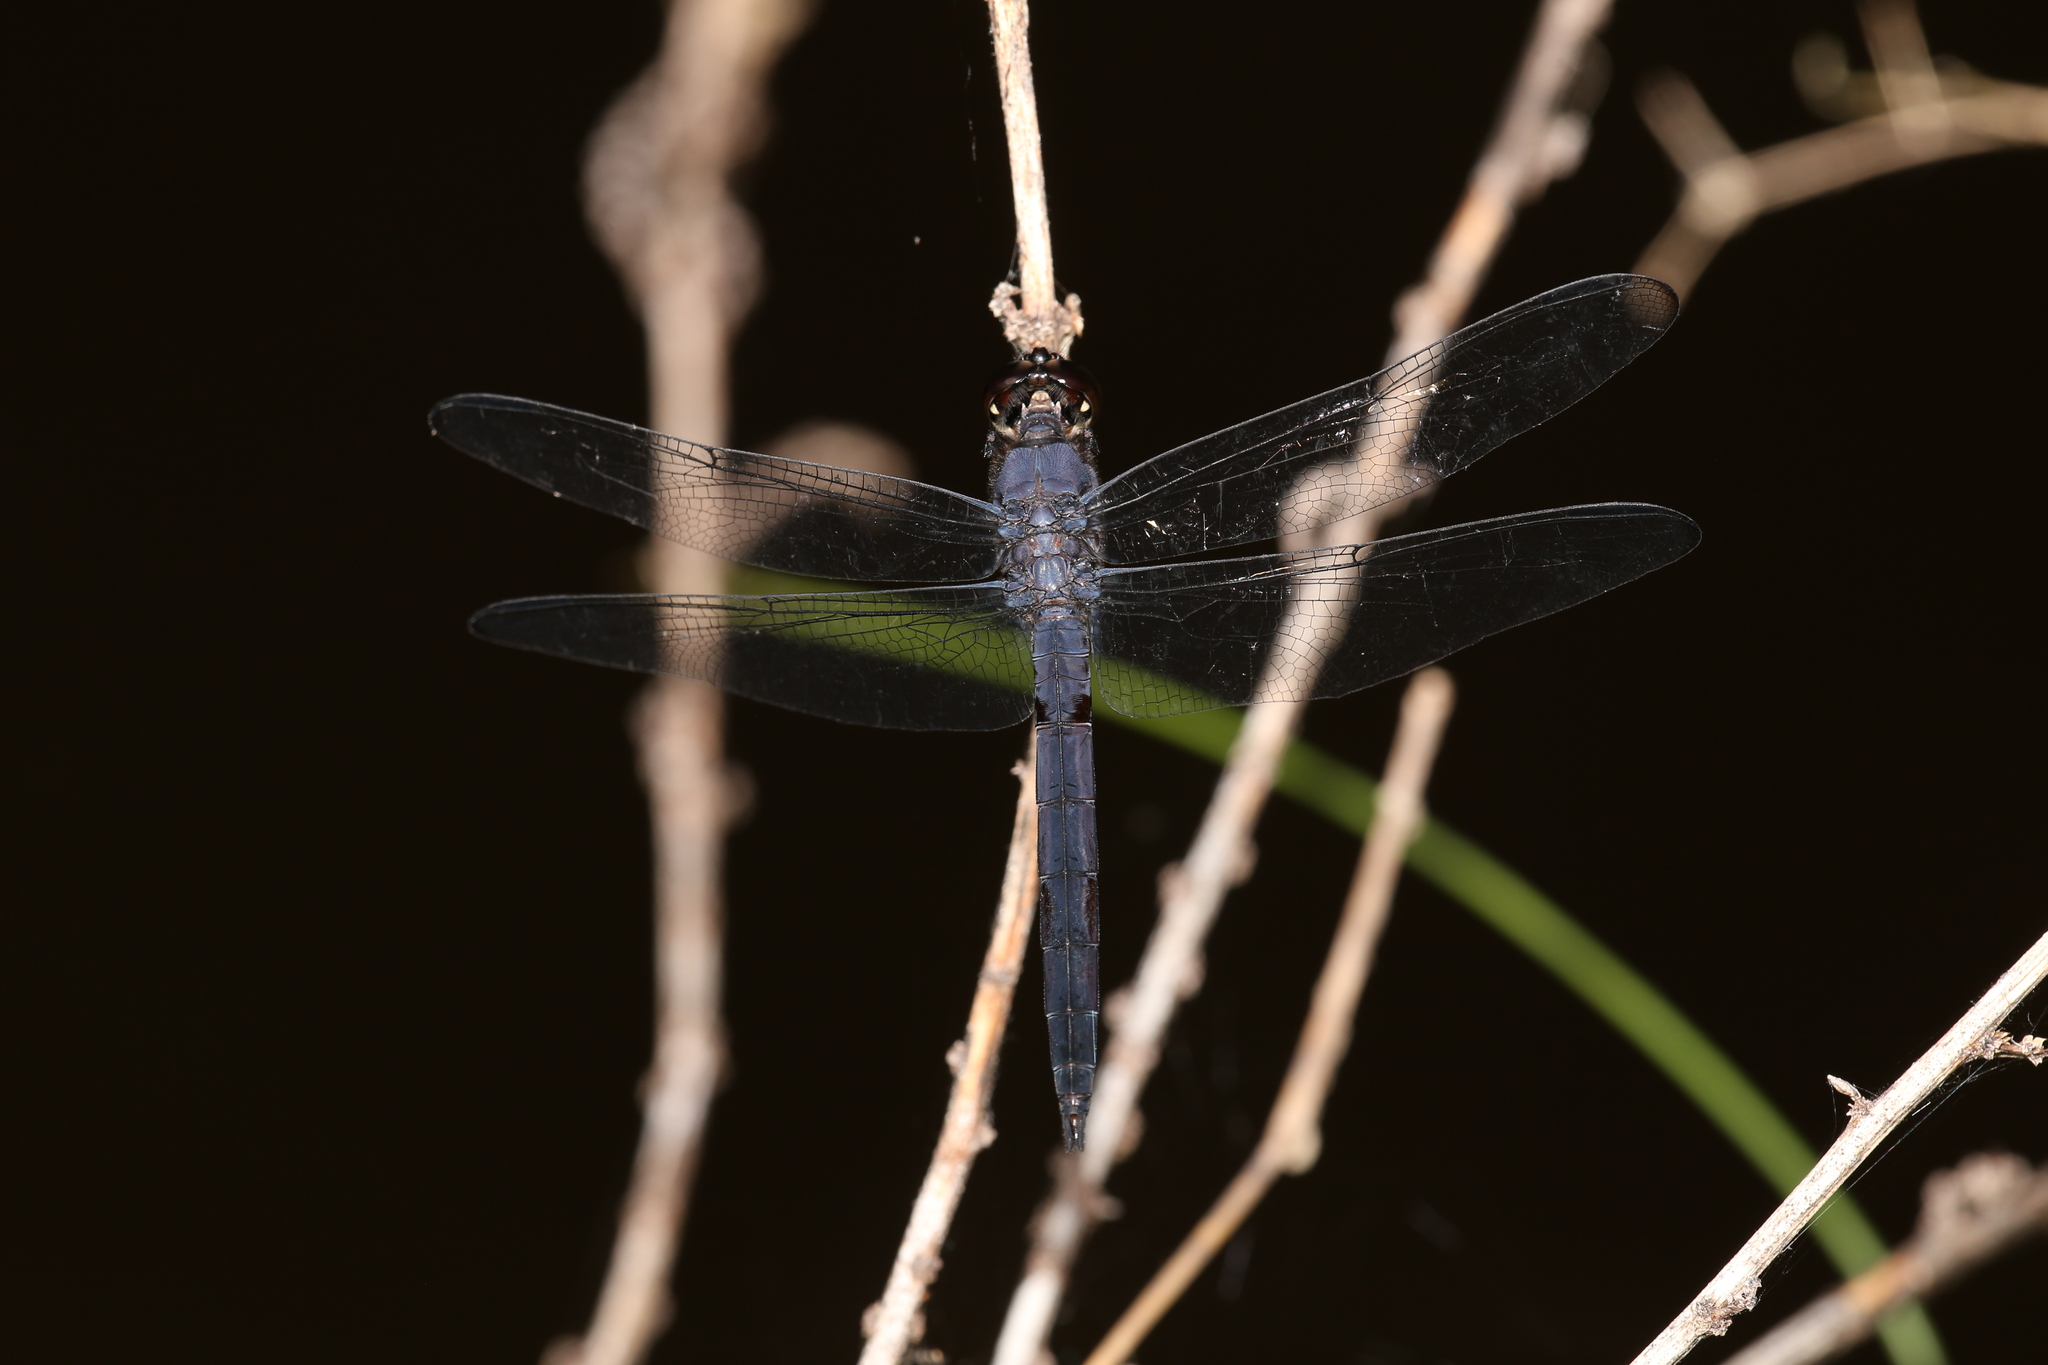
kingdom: Animalia
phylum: Arthropoda
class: Insecta
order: Odonata
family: Libellulidae
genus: Libellula
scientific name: Libellula incesta
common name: Slaty skimmer
